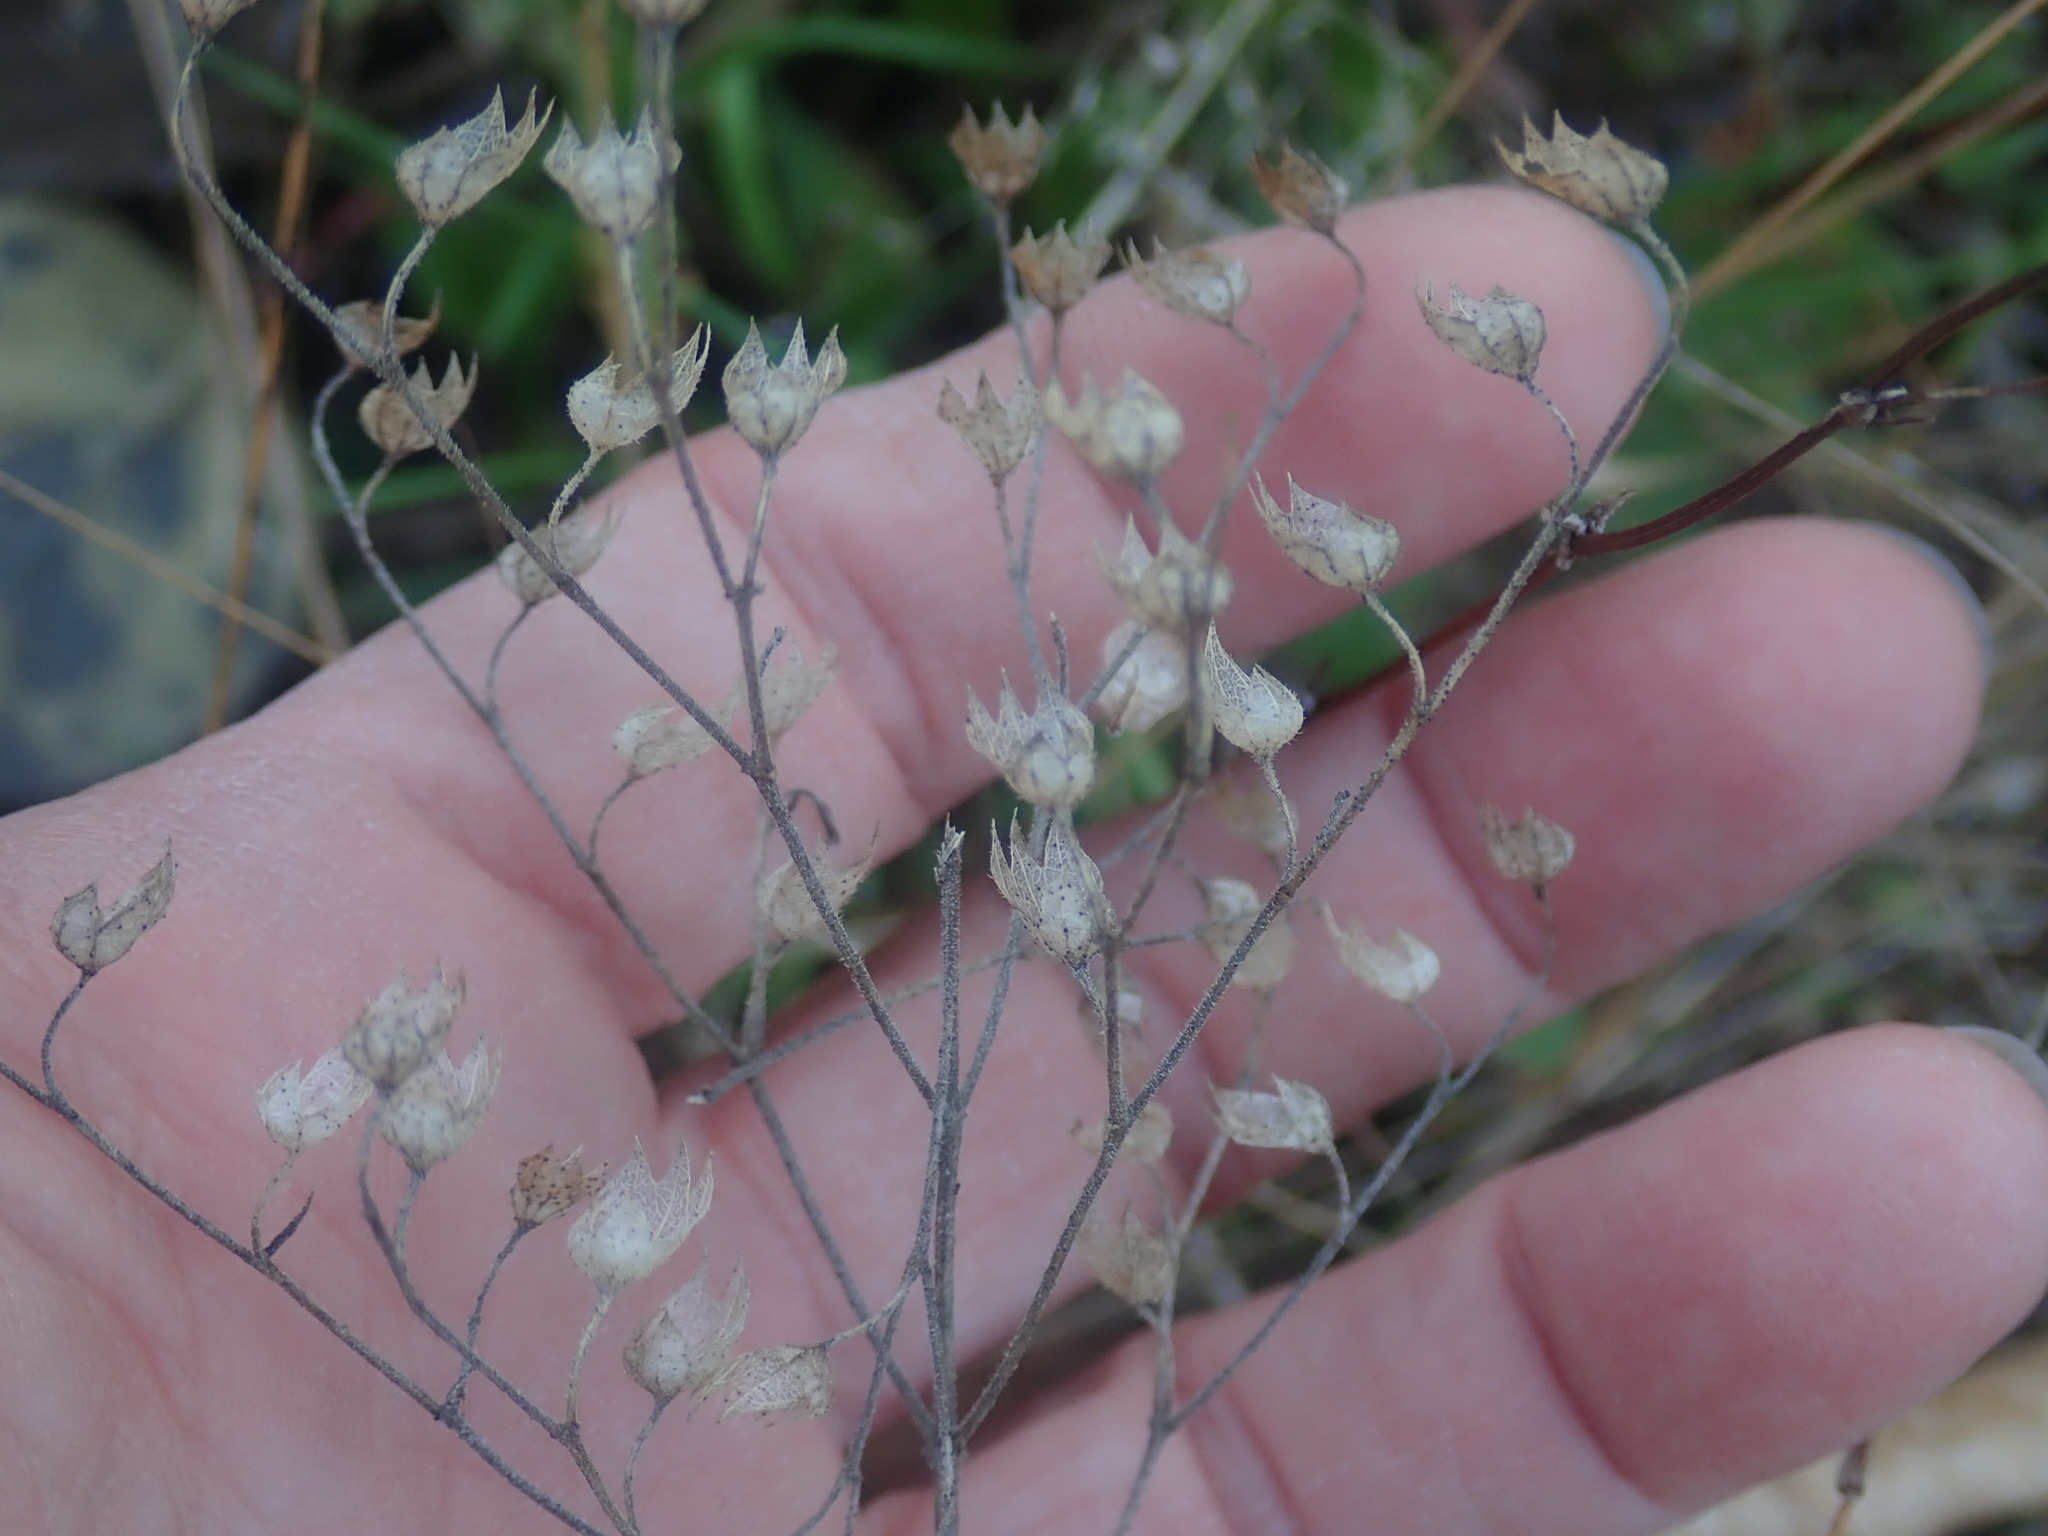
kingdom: Plantae
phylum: Tracheophyta
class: Magnoliopsida
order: Lamiales
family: Lamiaceae
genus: Trichostema
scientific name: Trichostema dichotomum
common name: Bastard pennyroyal
